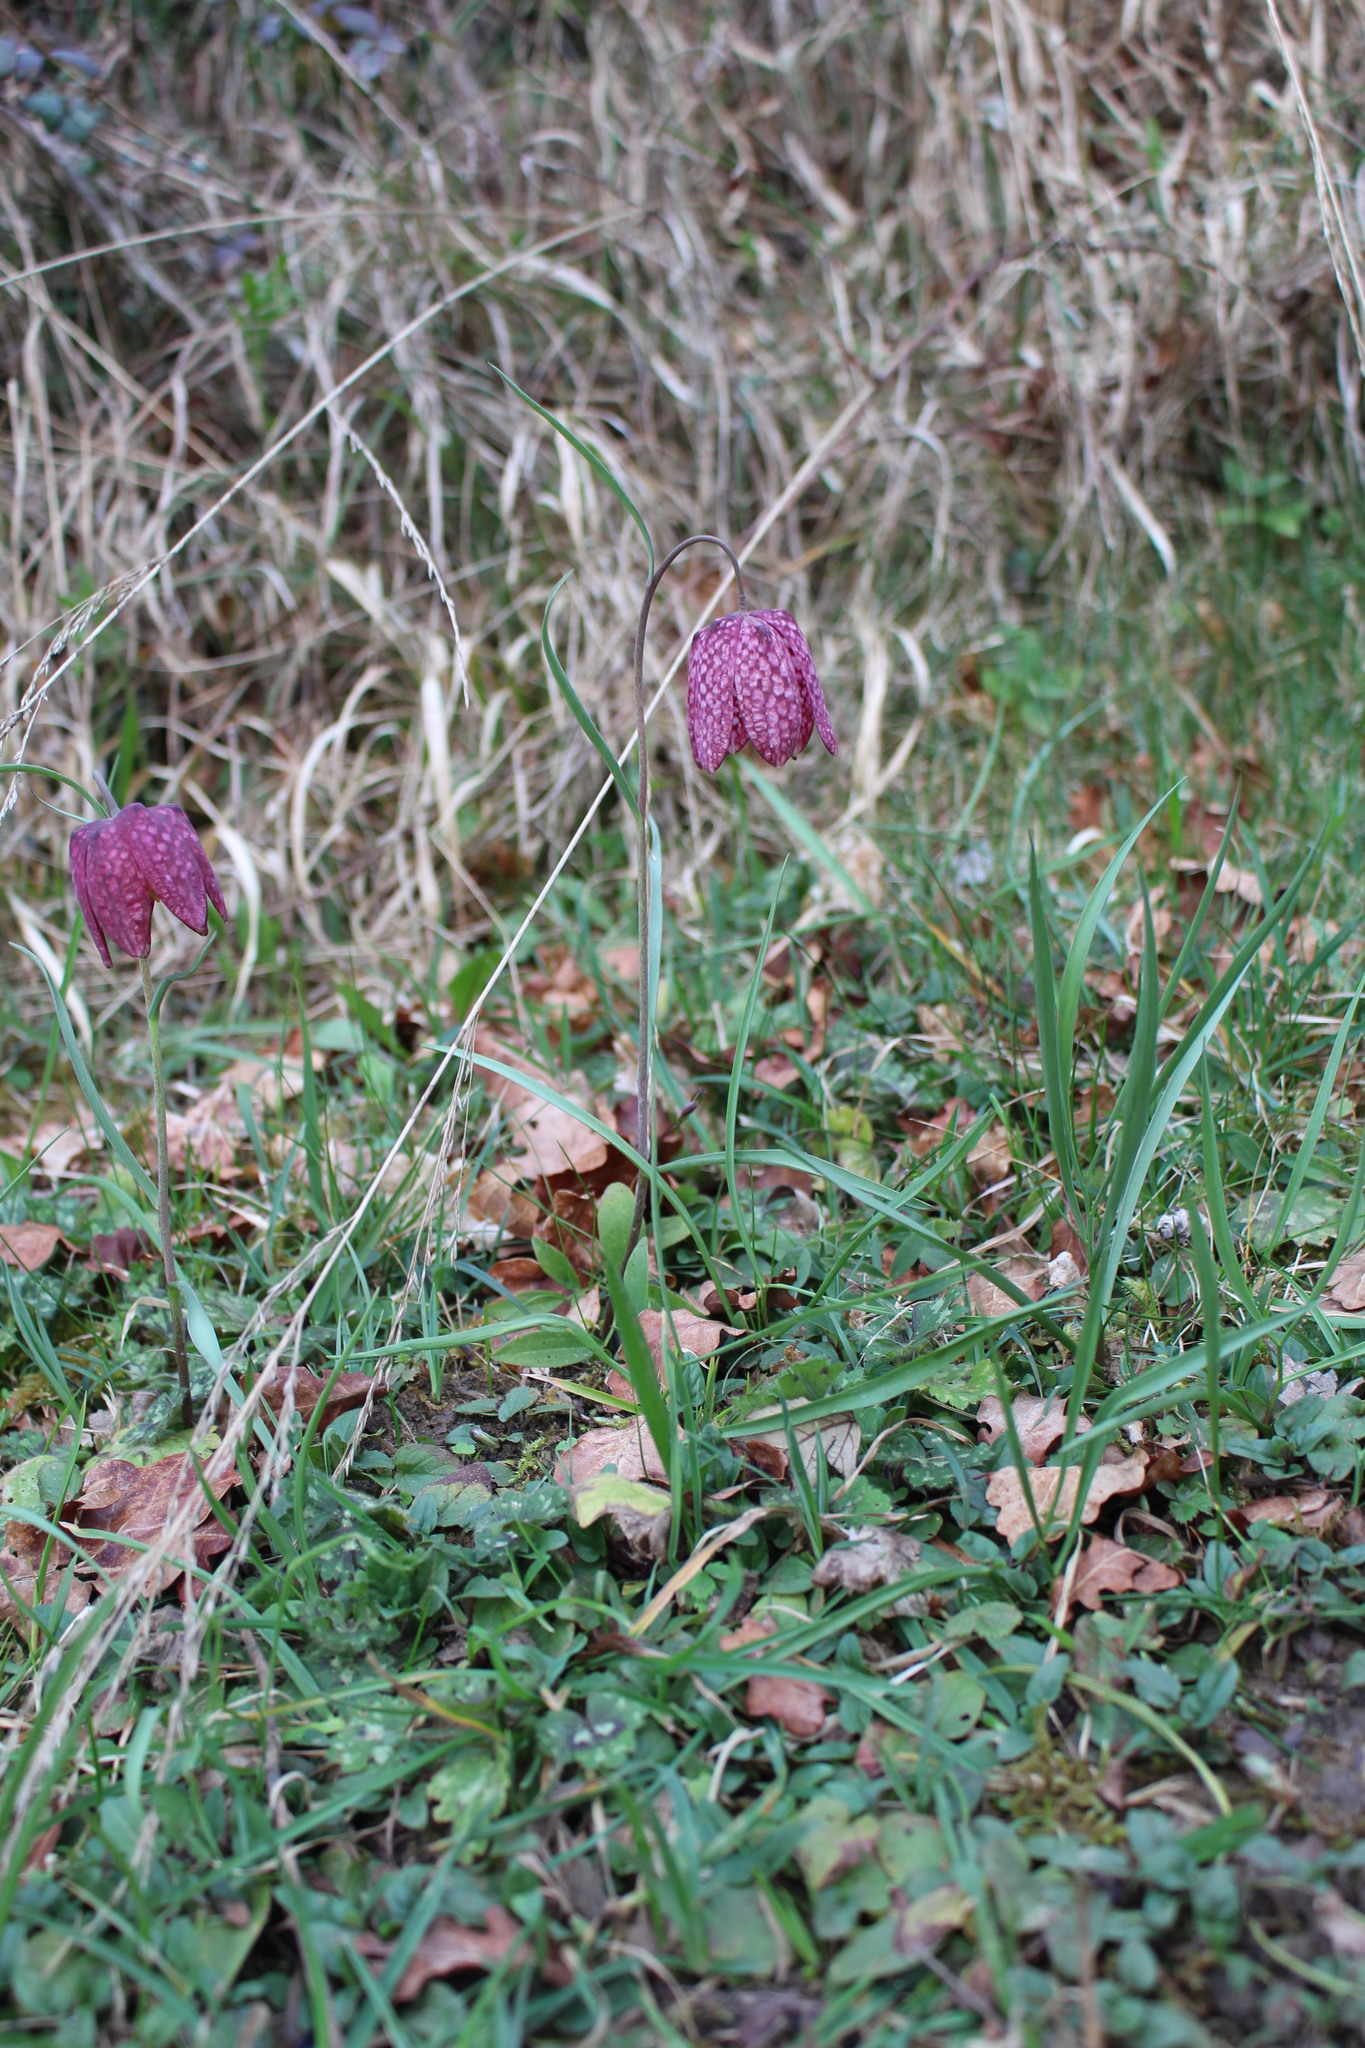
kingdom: Plantae
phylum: Tracheophyta
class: Liliopsida
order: Liliales
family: Liliaceae
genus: Fritillaria
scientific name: Fritillaria meleagris
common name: Fritillary
